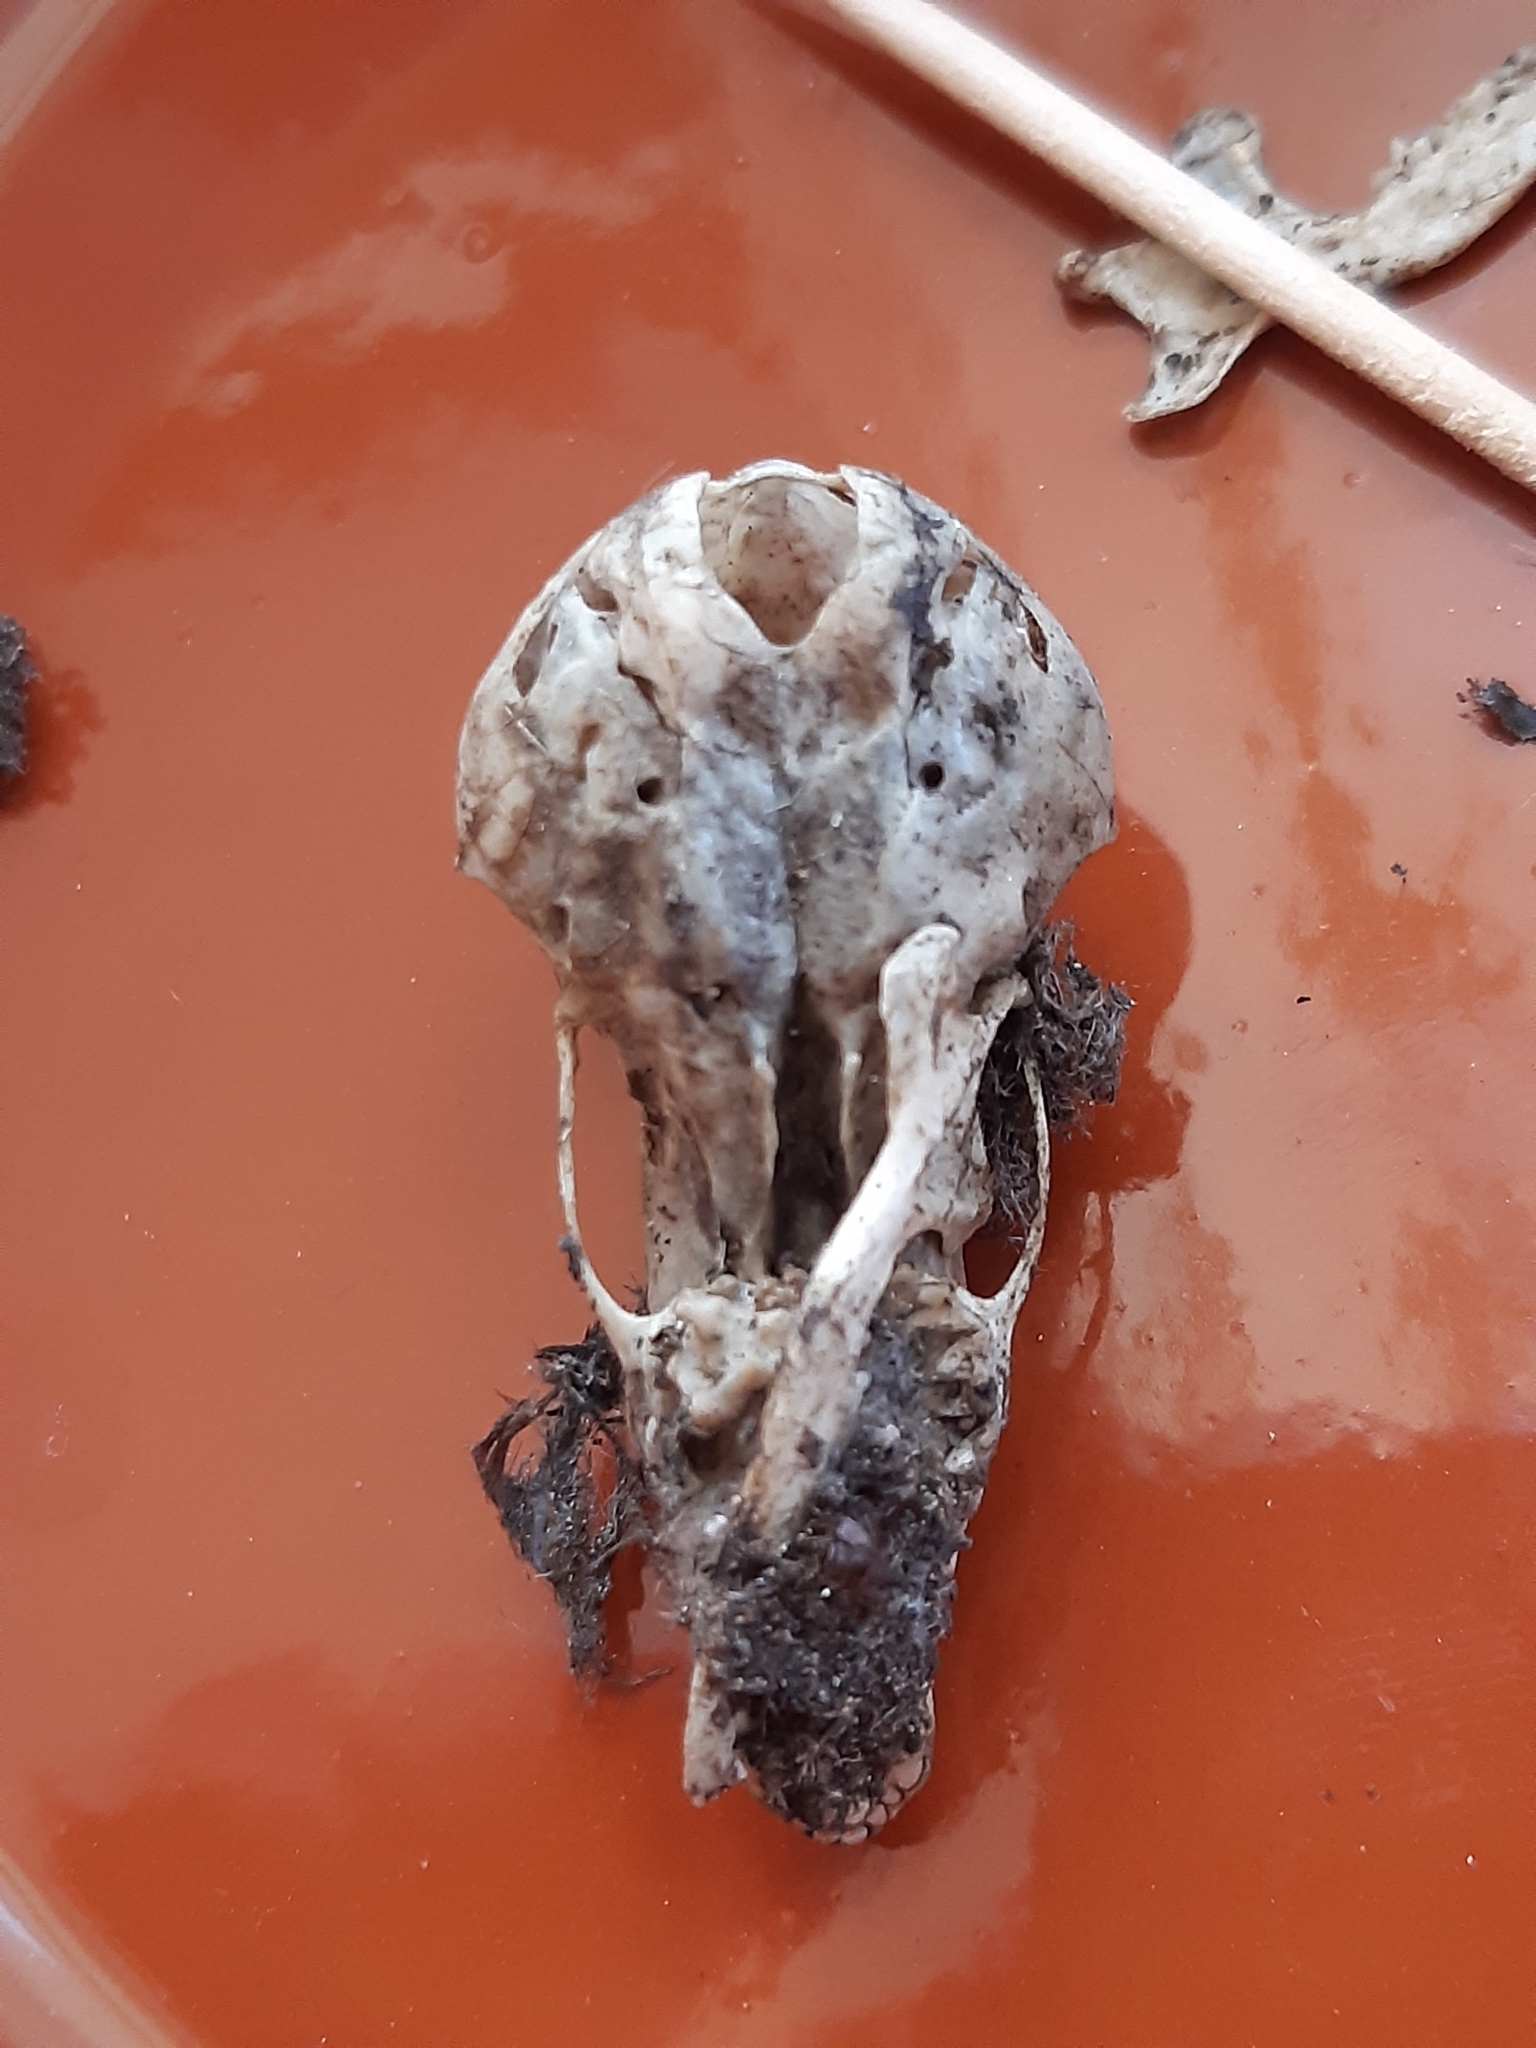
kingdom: Animalia
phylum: Chordata
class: Mammalia
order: Soricomorpha
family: Talpidae
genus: Talpa
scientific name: Talpa europaea
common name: European mole
